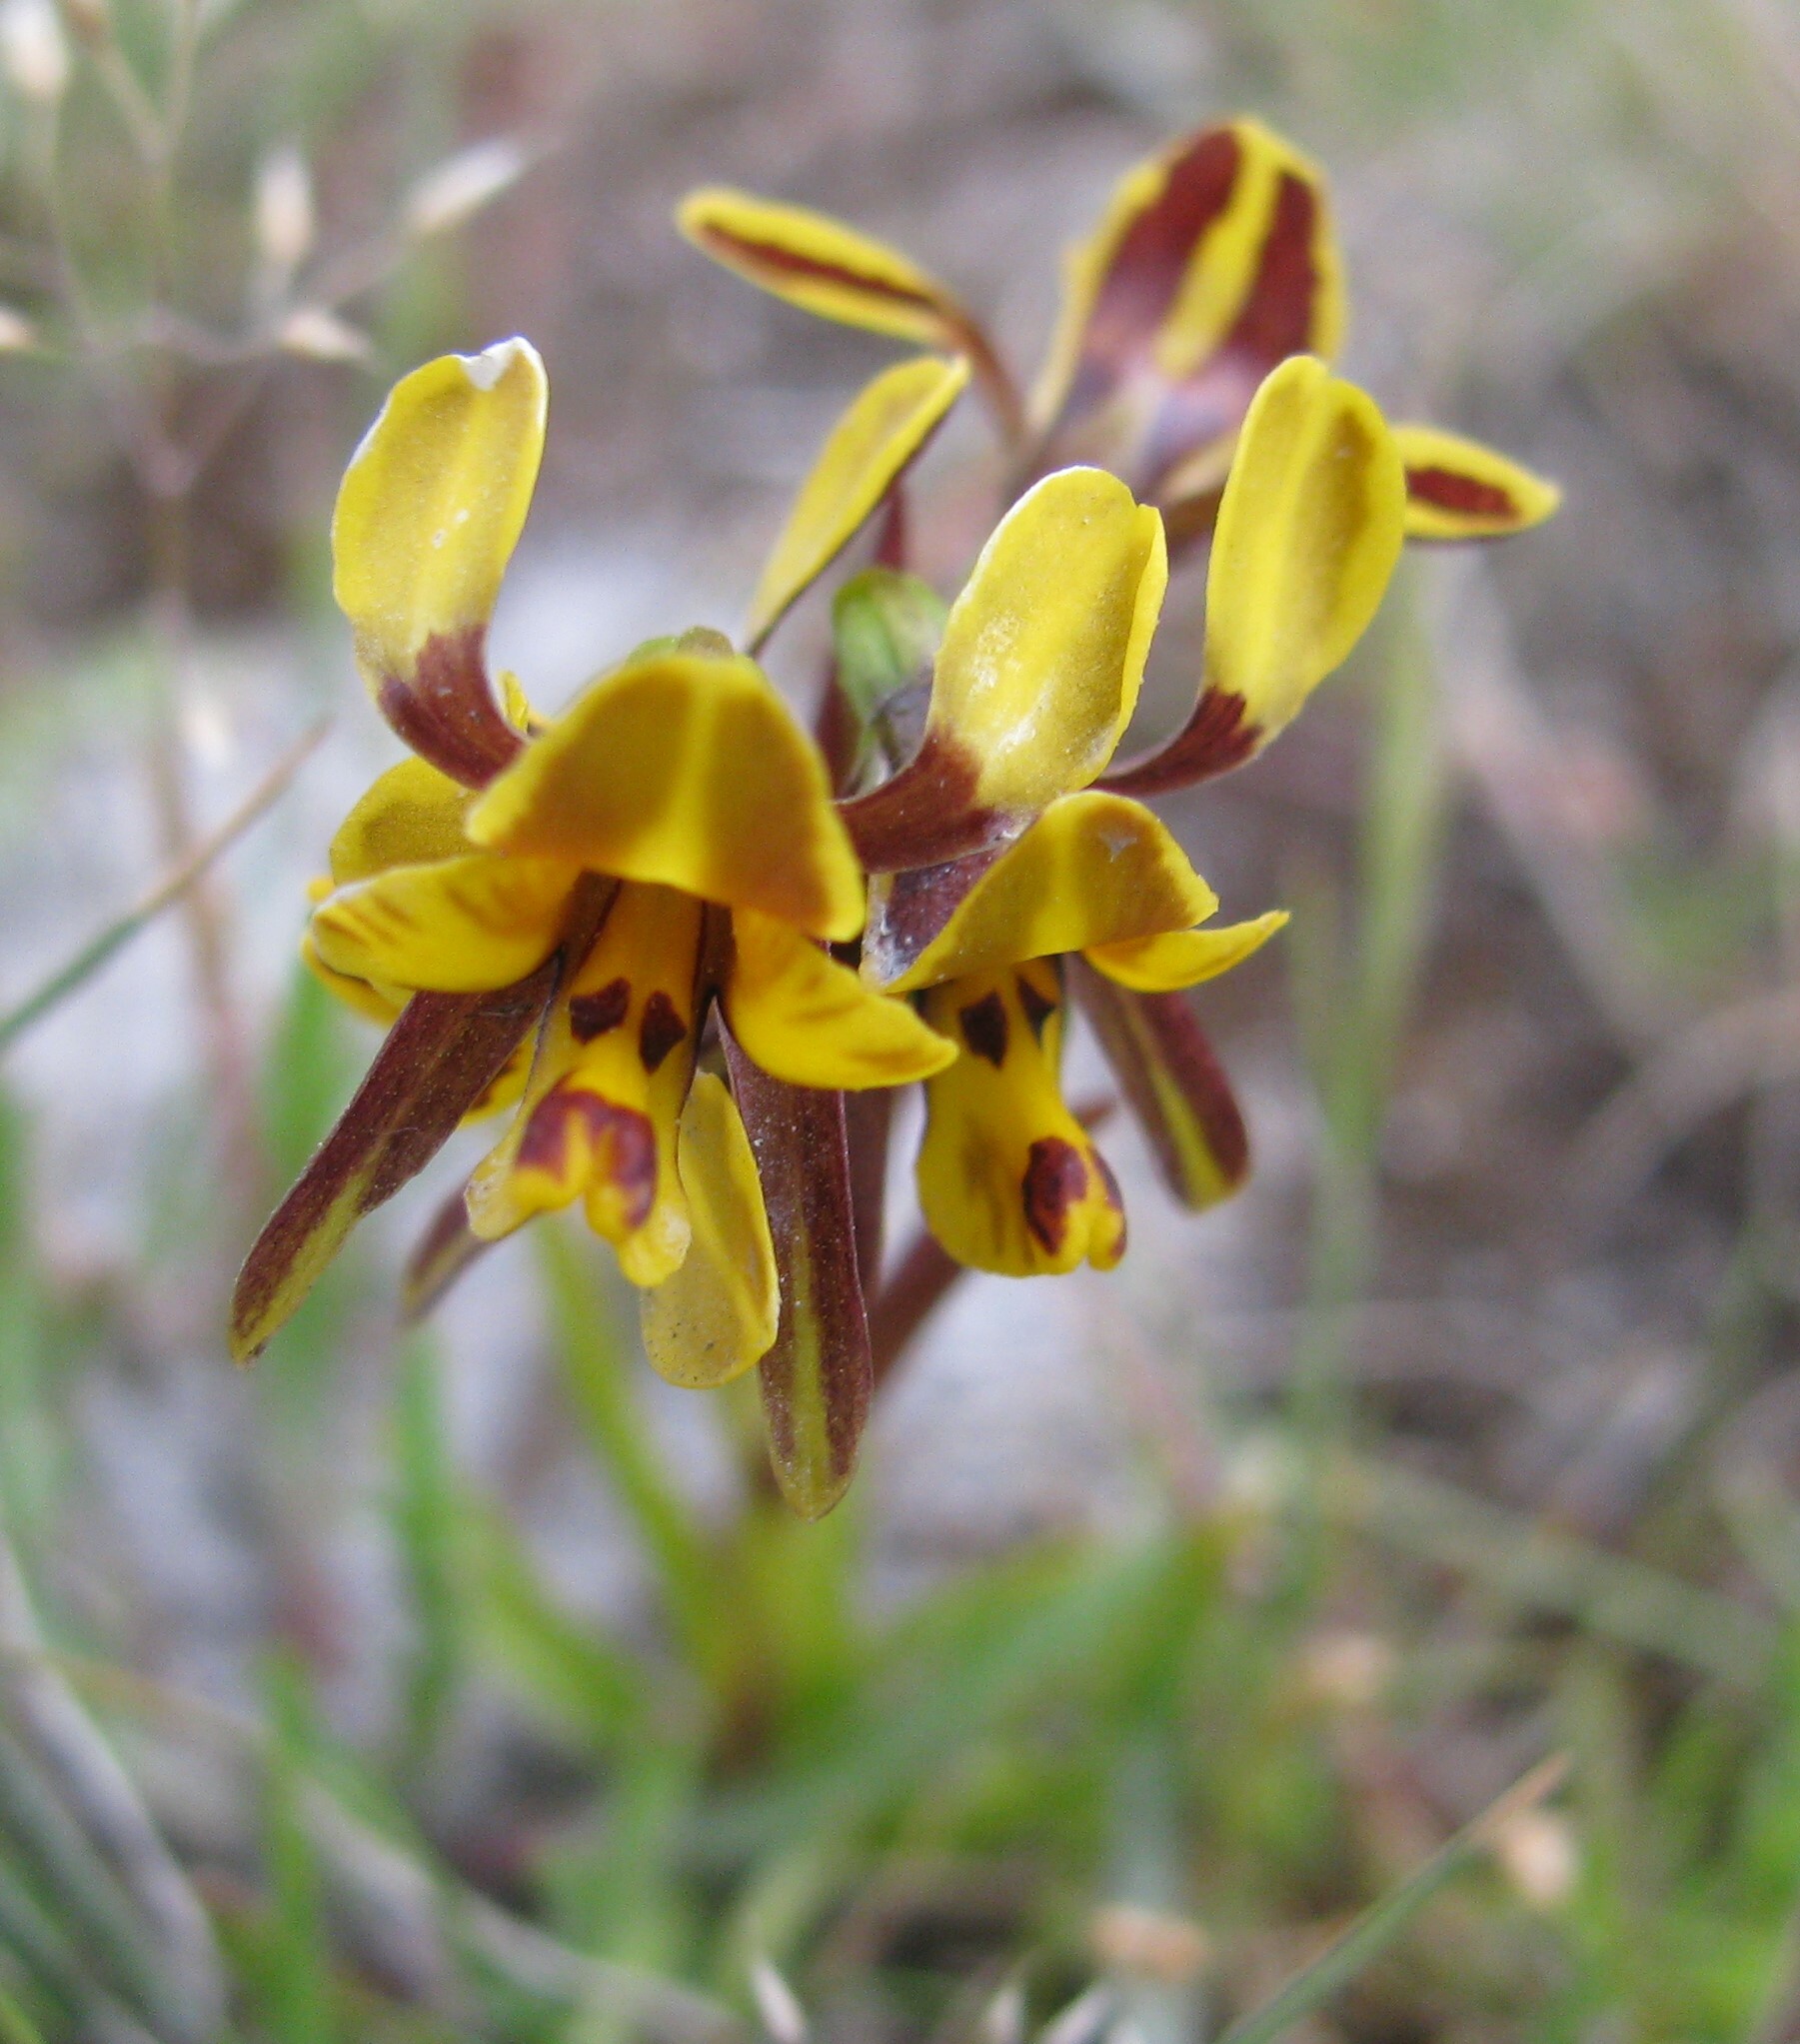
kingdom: Plantae
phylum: Tracheophyta
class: Liliopsida
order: Asparagales
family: Orchidaceae
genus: Diuris
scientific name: Diuris palustris
